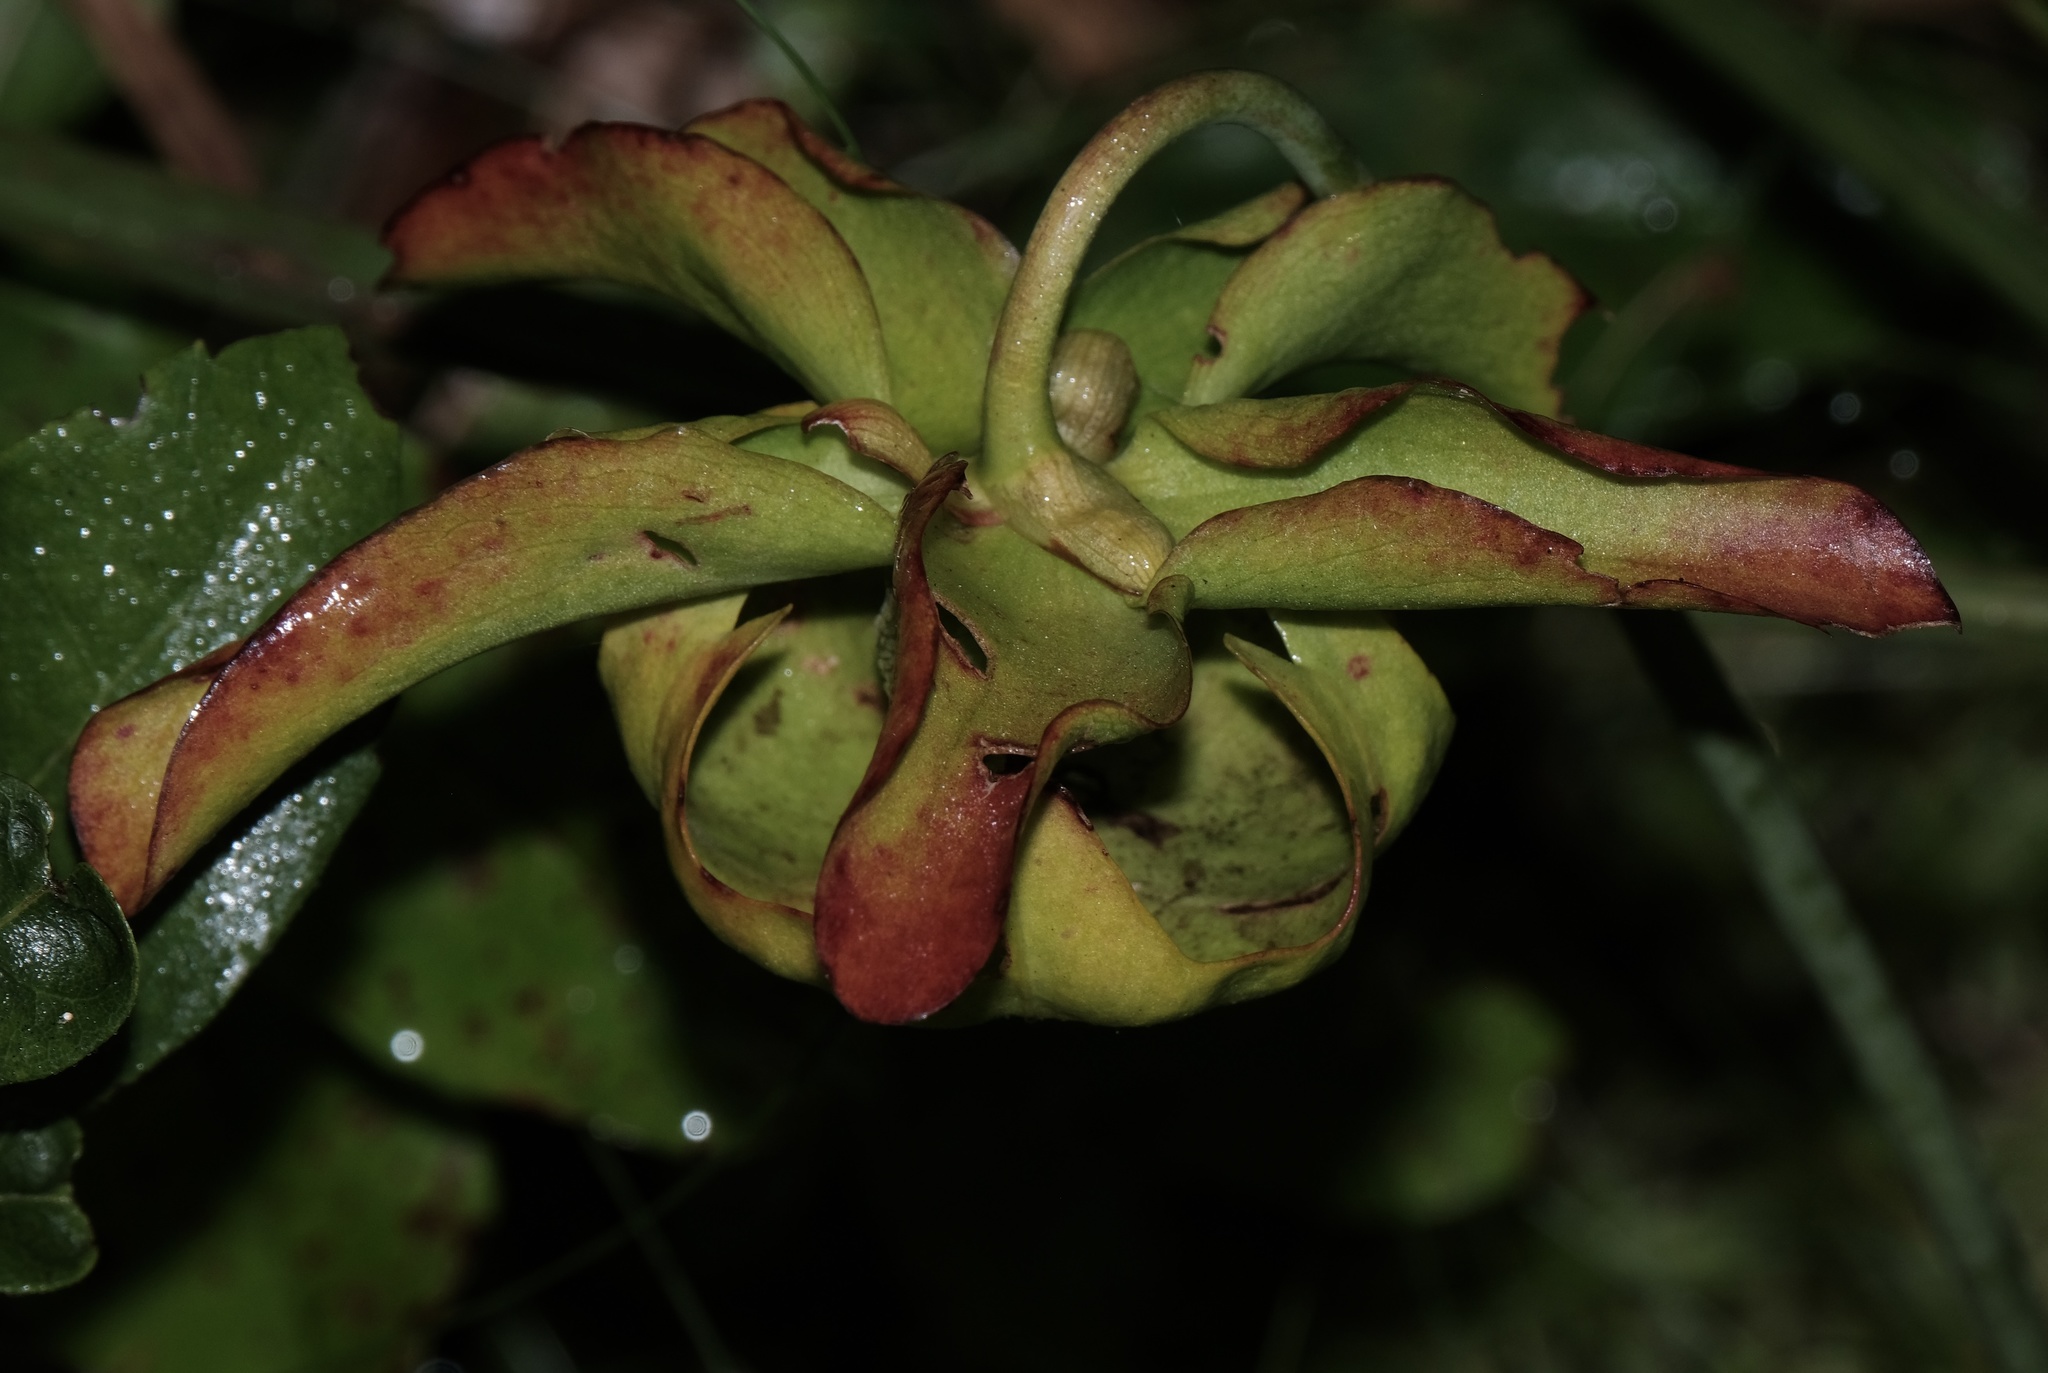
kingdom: Plantae
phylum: Tracheophyta
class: Magnoliopsida
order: Ericales
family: Sarraceniaceae
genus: Sarracenia
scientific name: Sarracenia alata
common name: Yellow trumpets
